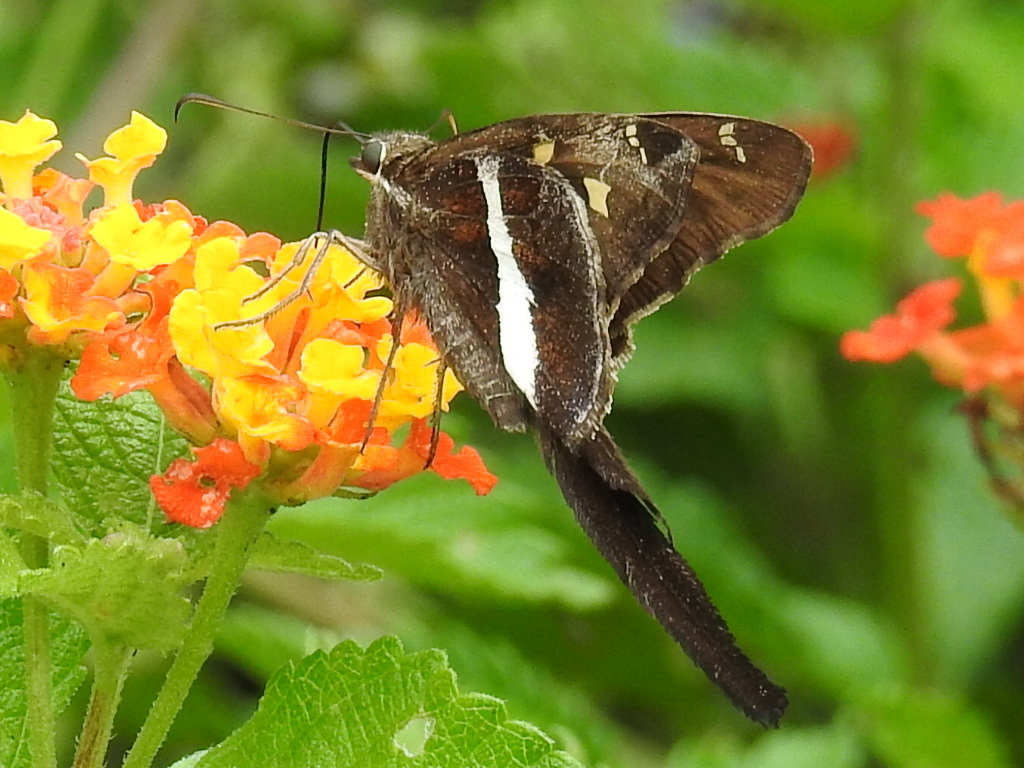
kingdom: Animalia
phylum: Arthropoda
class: Insecta
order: Lepidoptera
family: Hesperiidae
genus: Chioides
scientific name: Chioides catillus
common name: Silverbanded skipper
